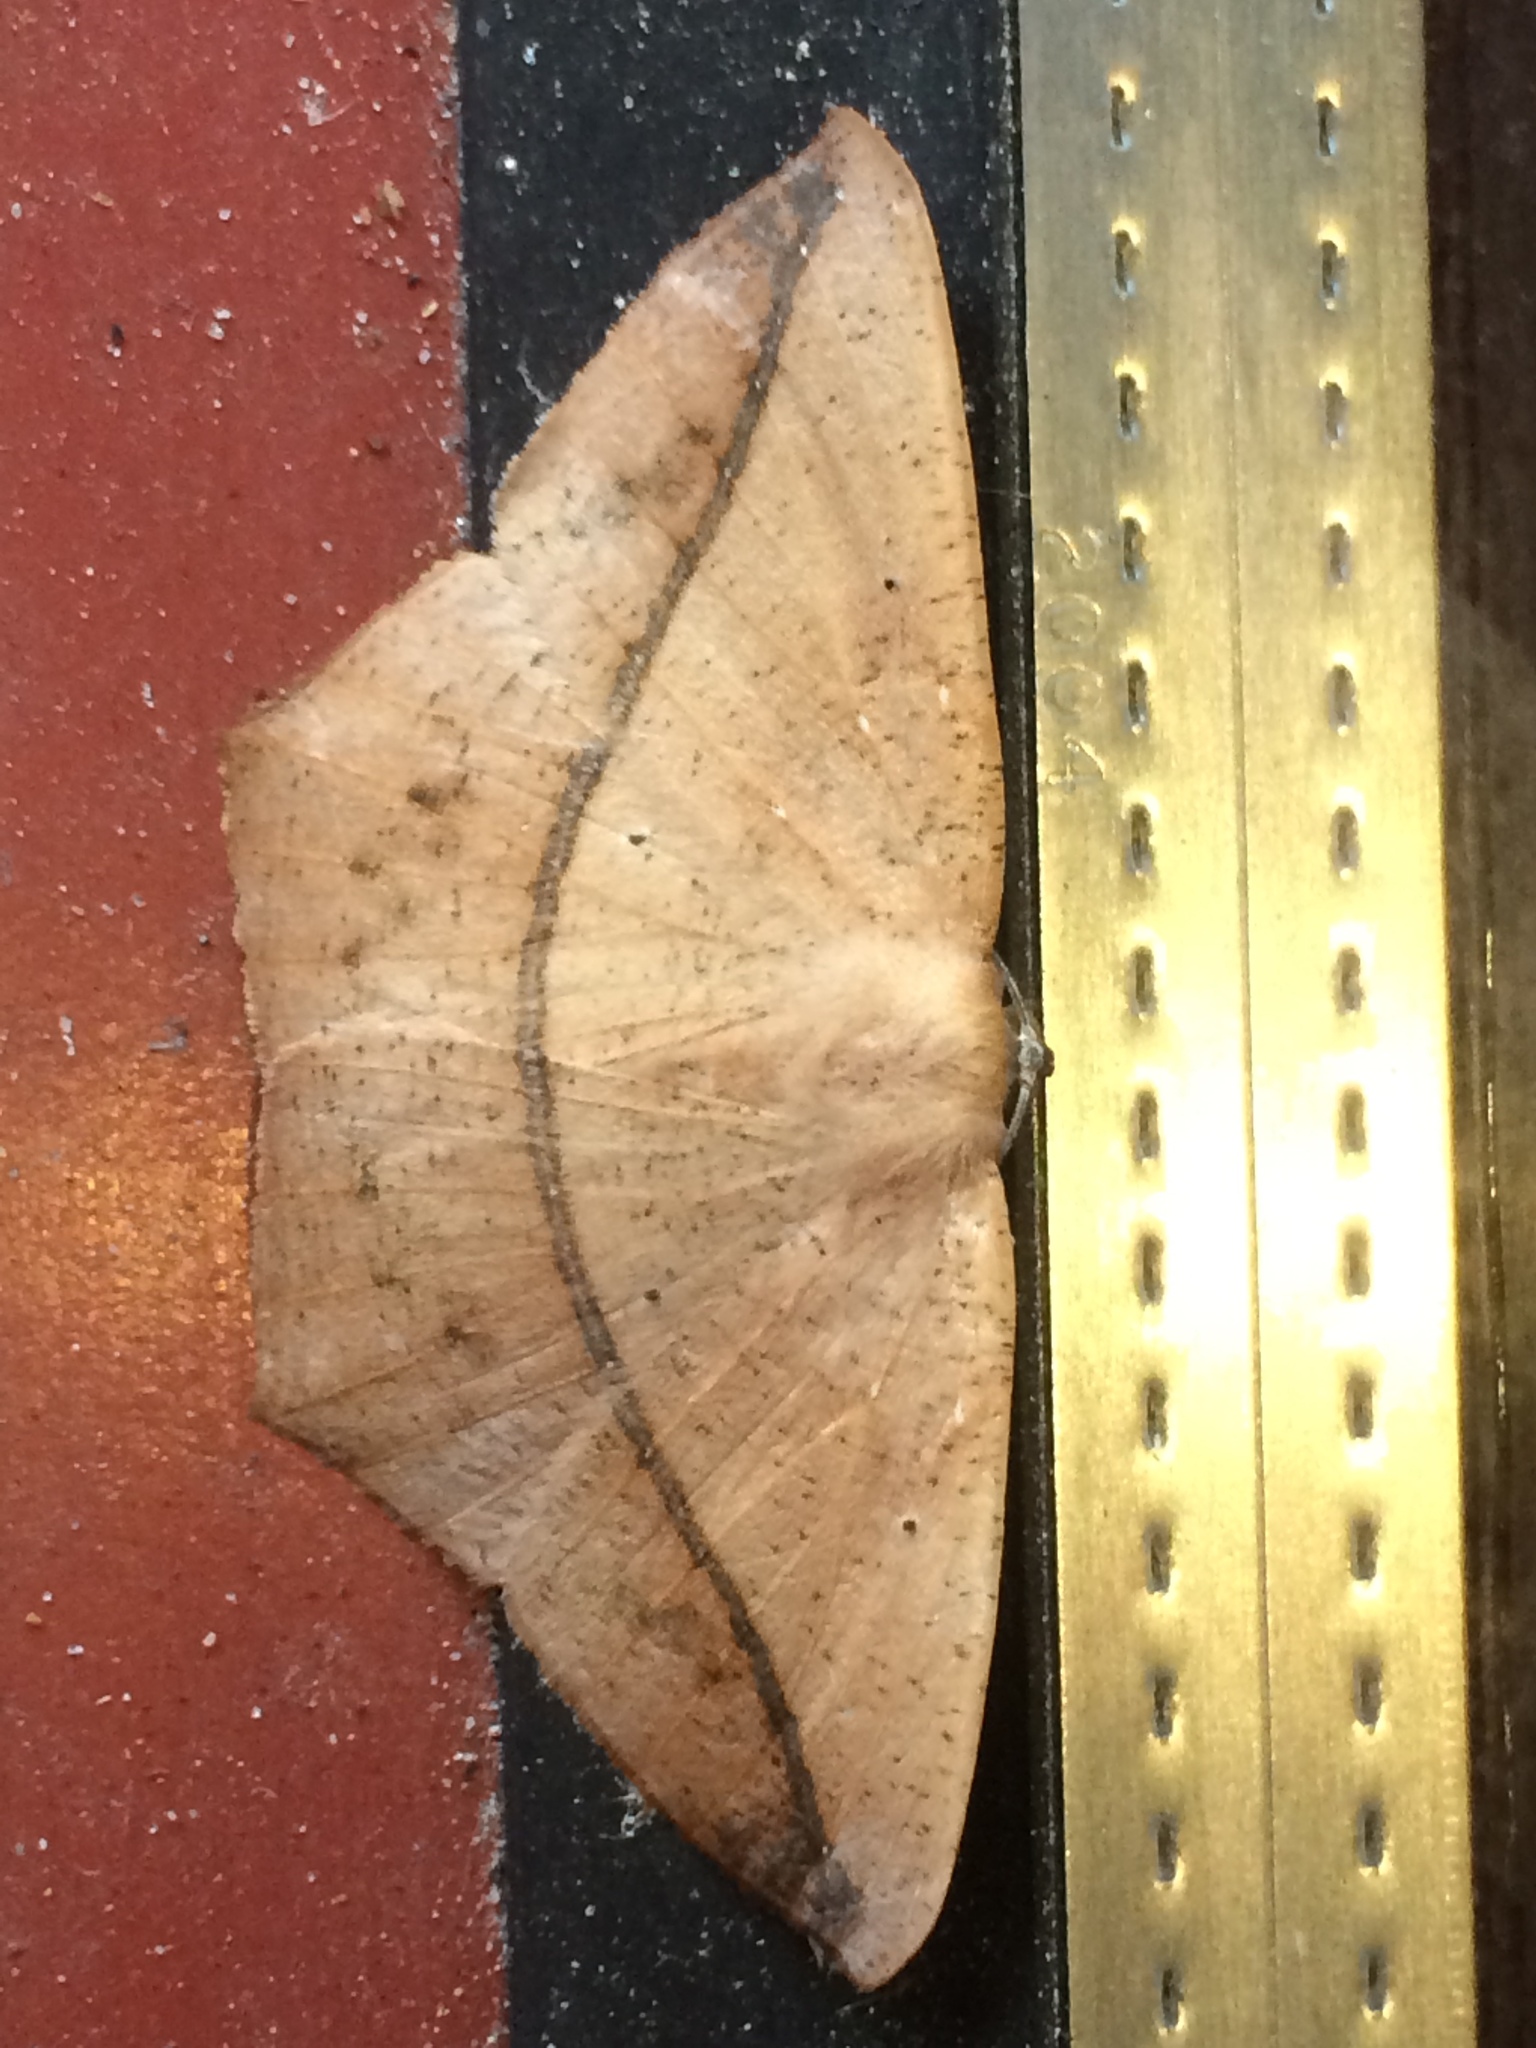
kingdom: Animalia
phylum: Arthropoda
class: Insecta
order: Lepidoptera
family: Geometridae
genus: Prochoerodes
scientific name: Prochoerodes lineola
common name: Large maple spanworm
